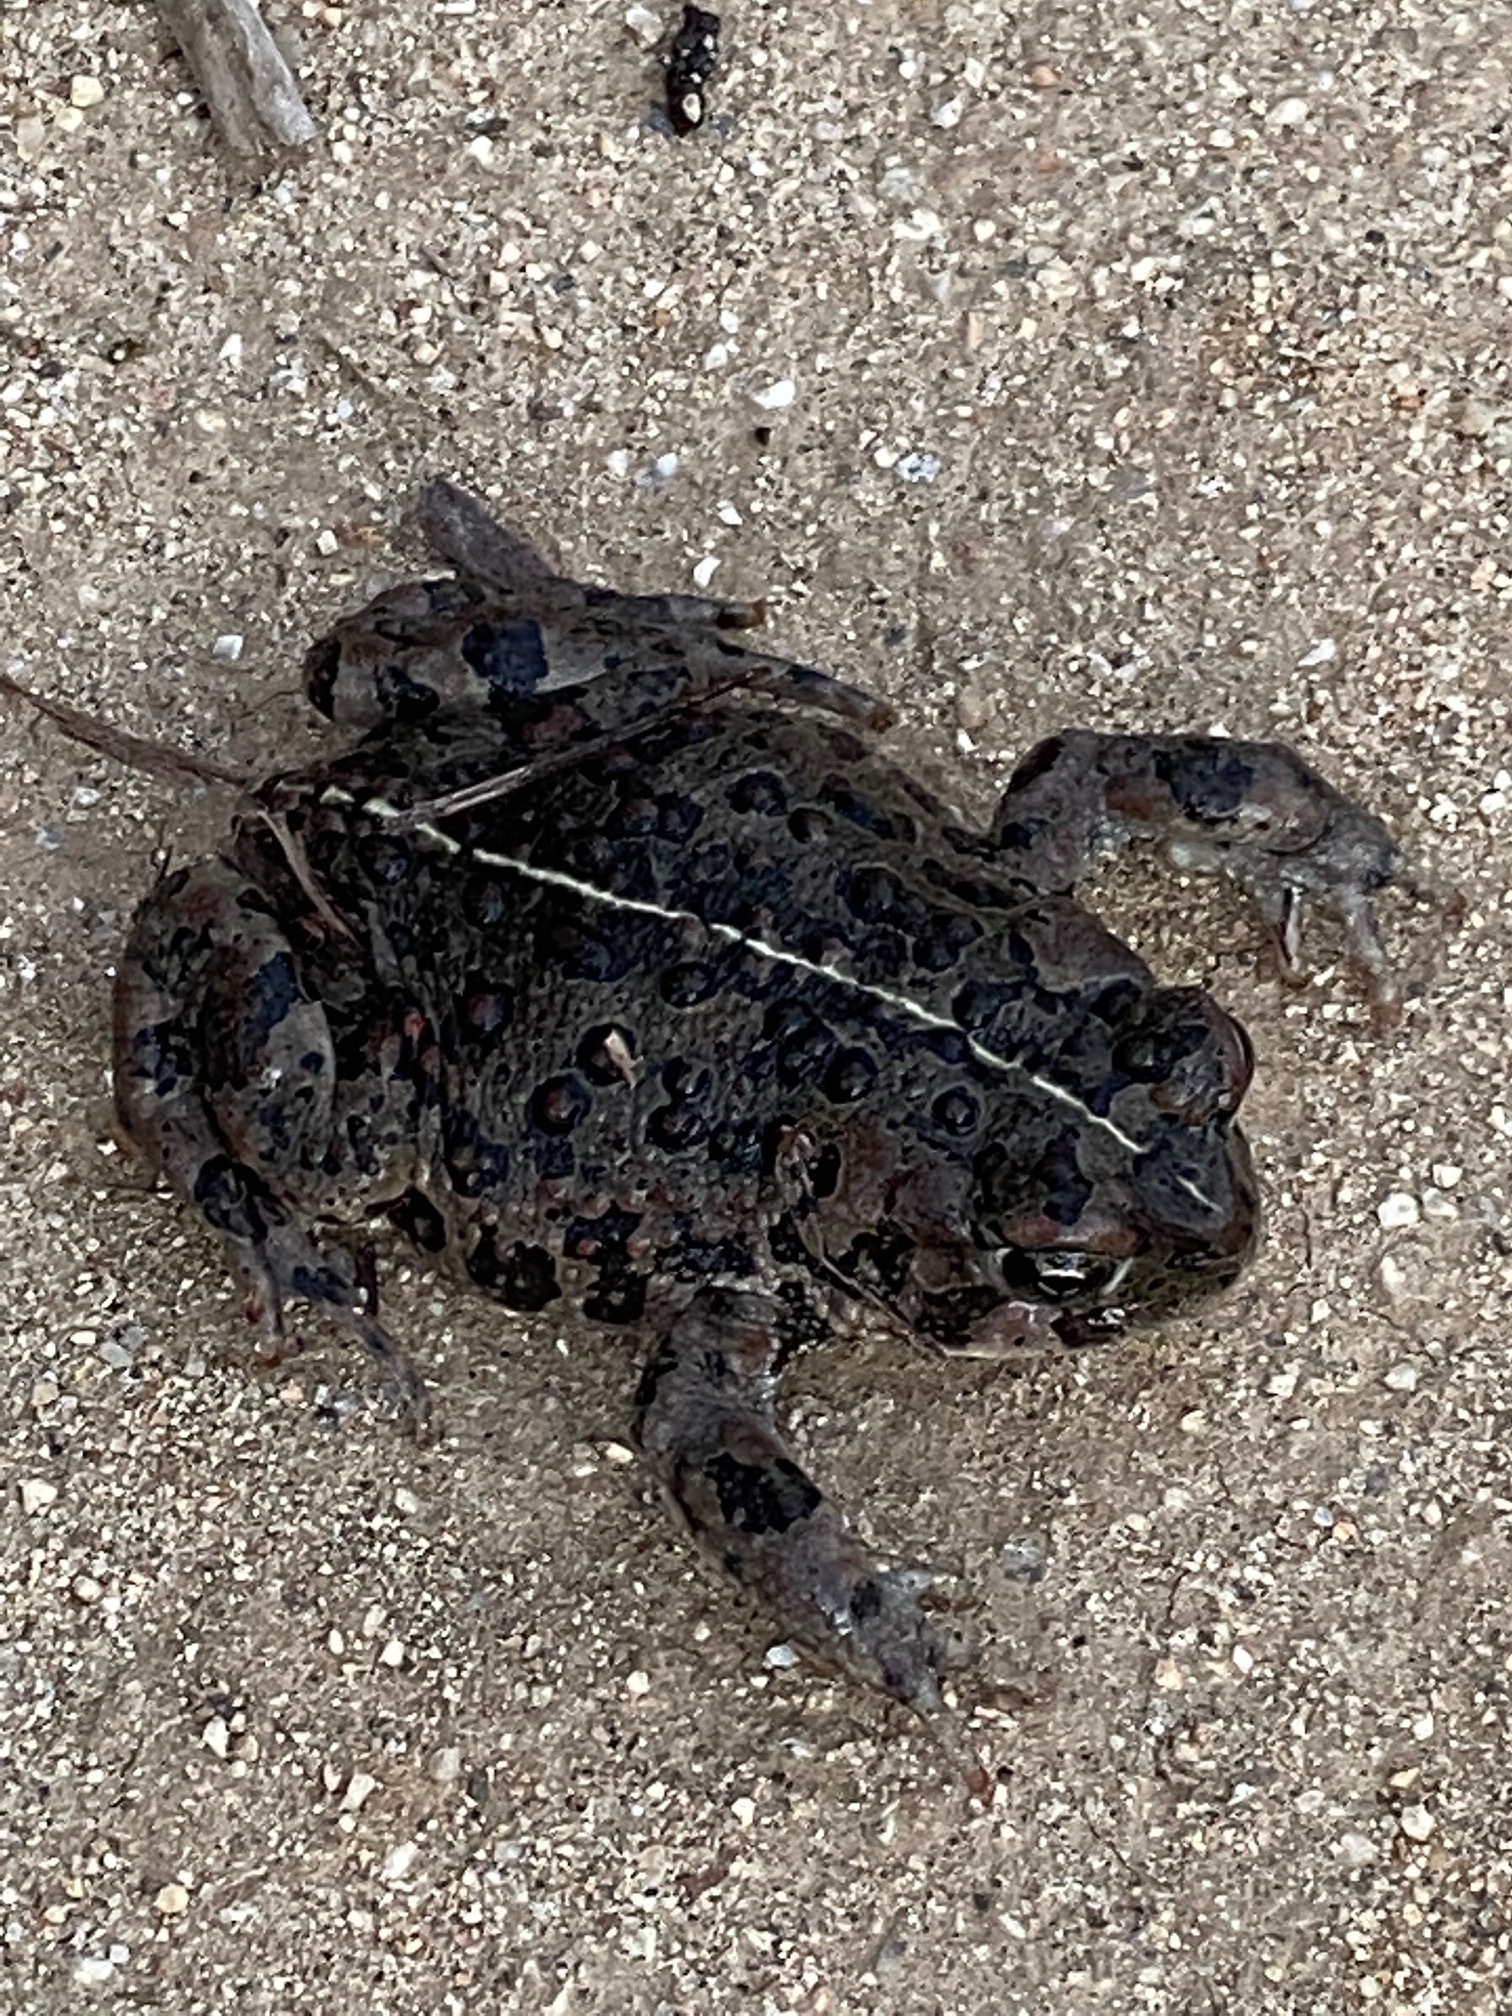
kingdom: Animalia
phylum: Chordata
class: Amphibia
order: Anura
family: Bufonidae
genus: Anaxyrus
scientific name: Anaxyrus boreas
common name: Western toad
